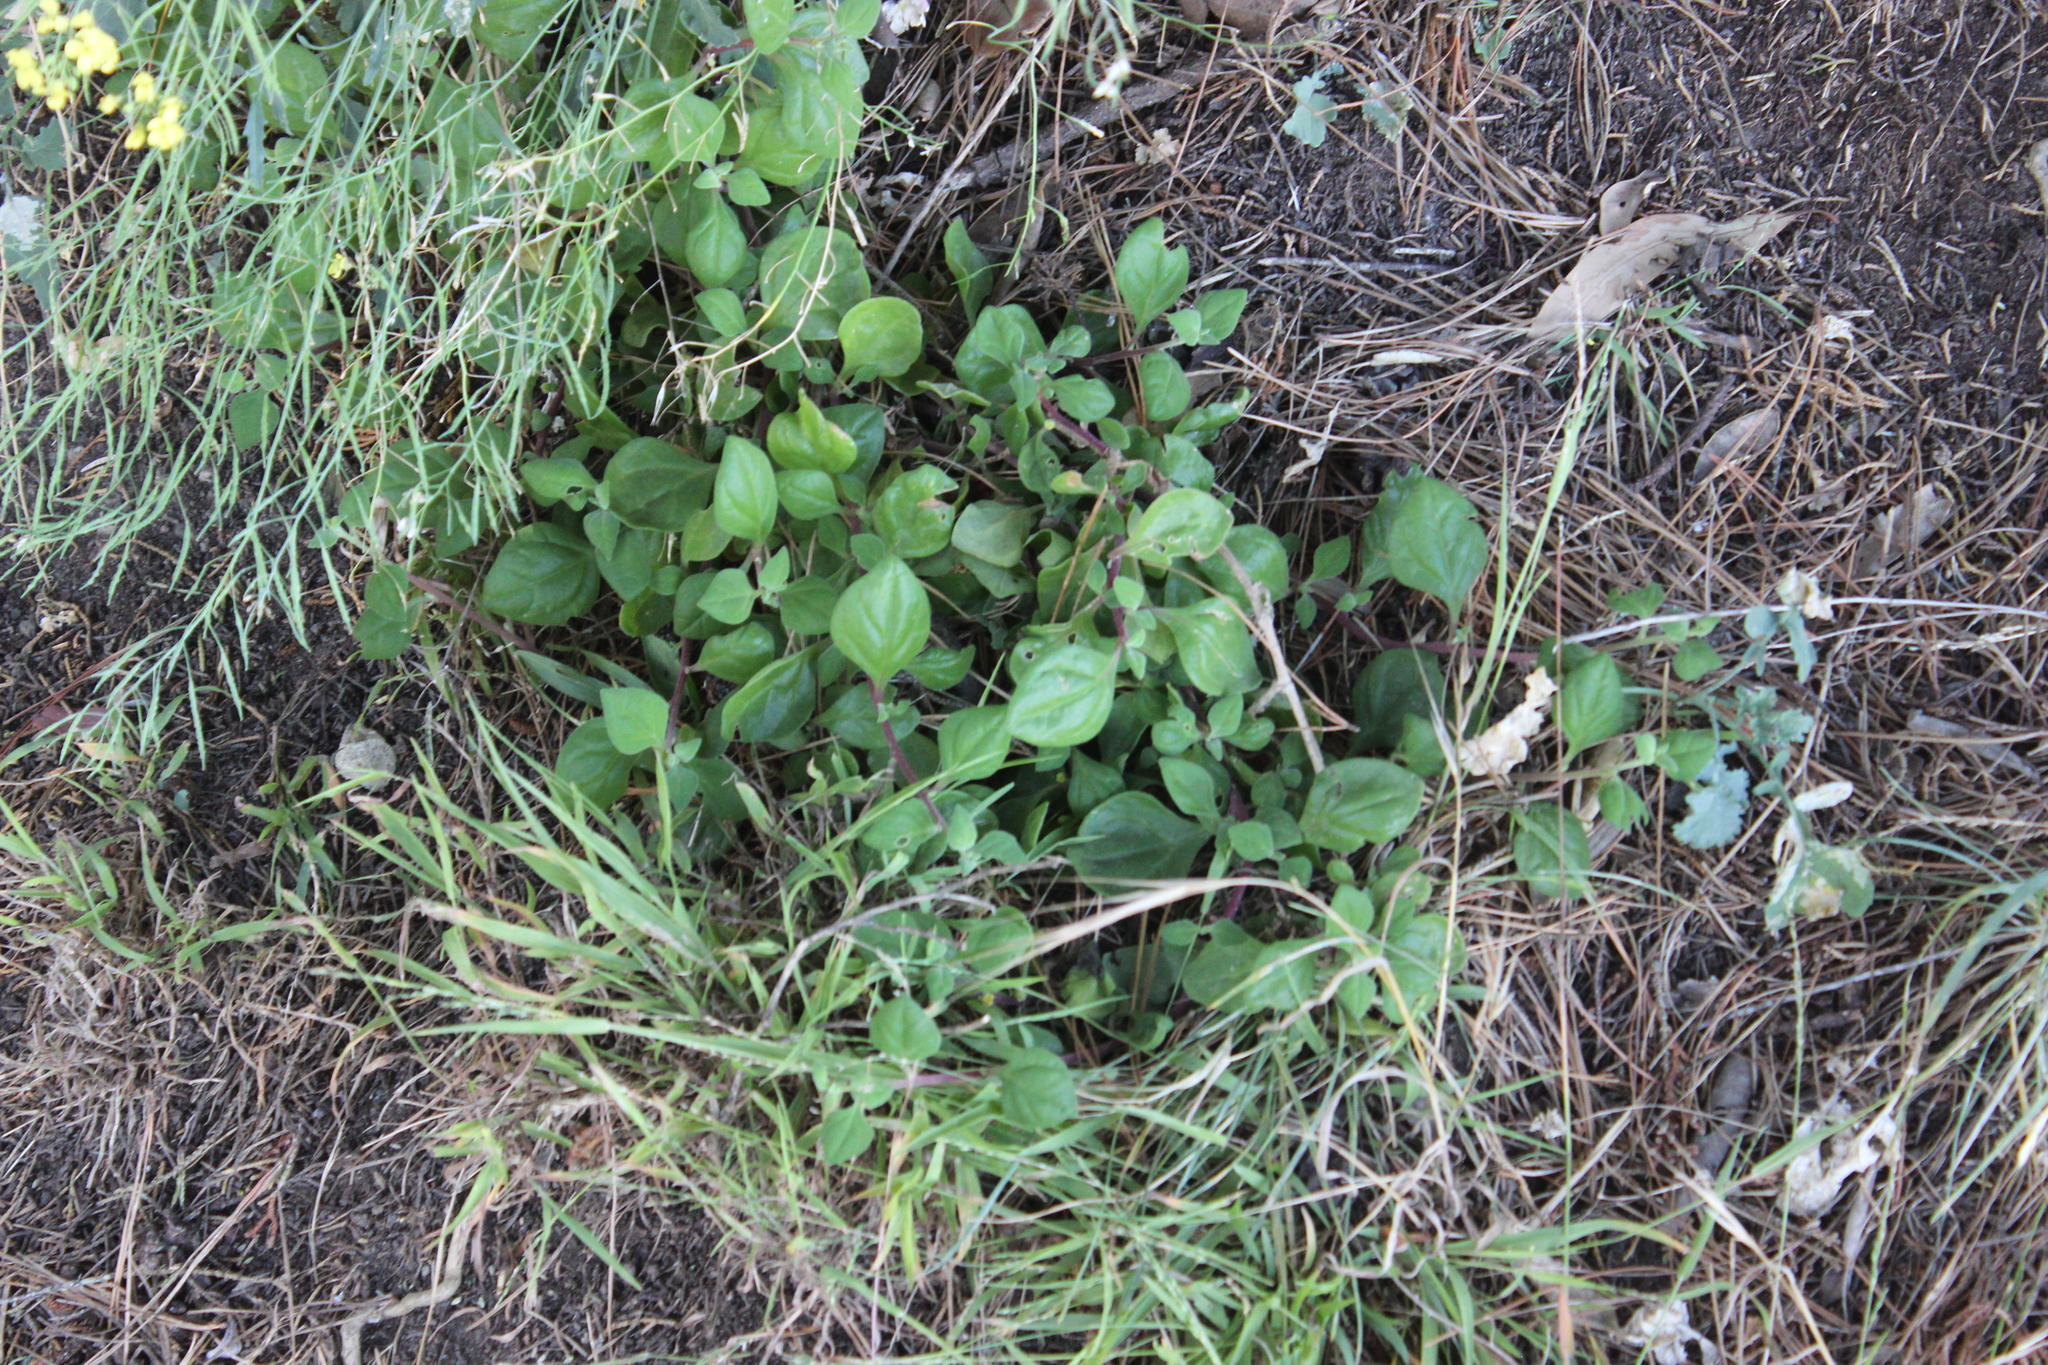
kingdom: Plantae
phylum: Tracheophyta
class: Magnoliopsida
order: Caryophyllales
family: Aizoaceae
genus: Tetragonia
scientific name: Tetragonia implexicoma
